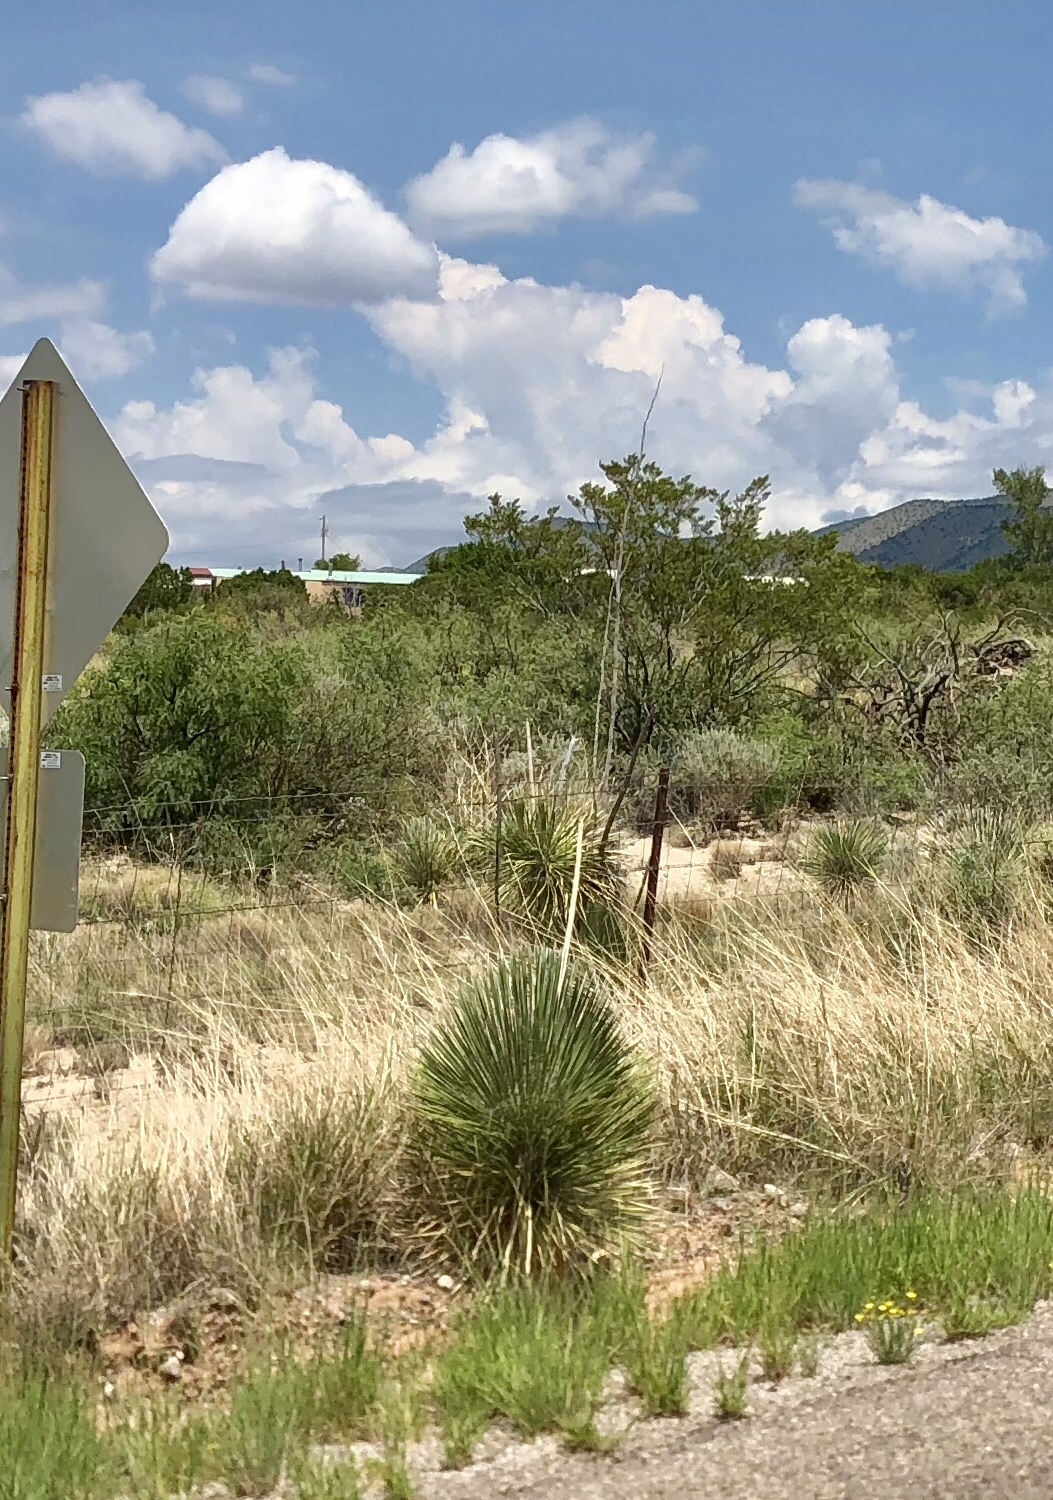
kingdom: Plantae
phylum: Tracheophyta
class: Liliopsida
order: Asparagales
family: Asparagaceae
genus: Yucca
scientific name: Yucca elata
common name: Palmella
